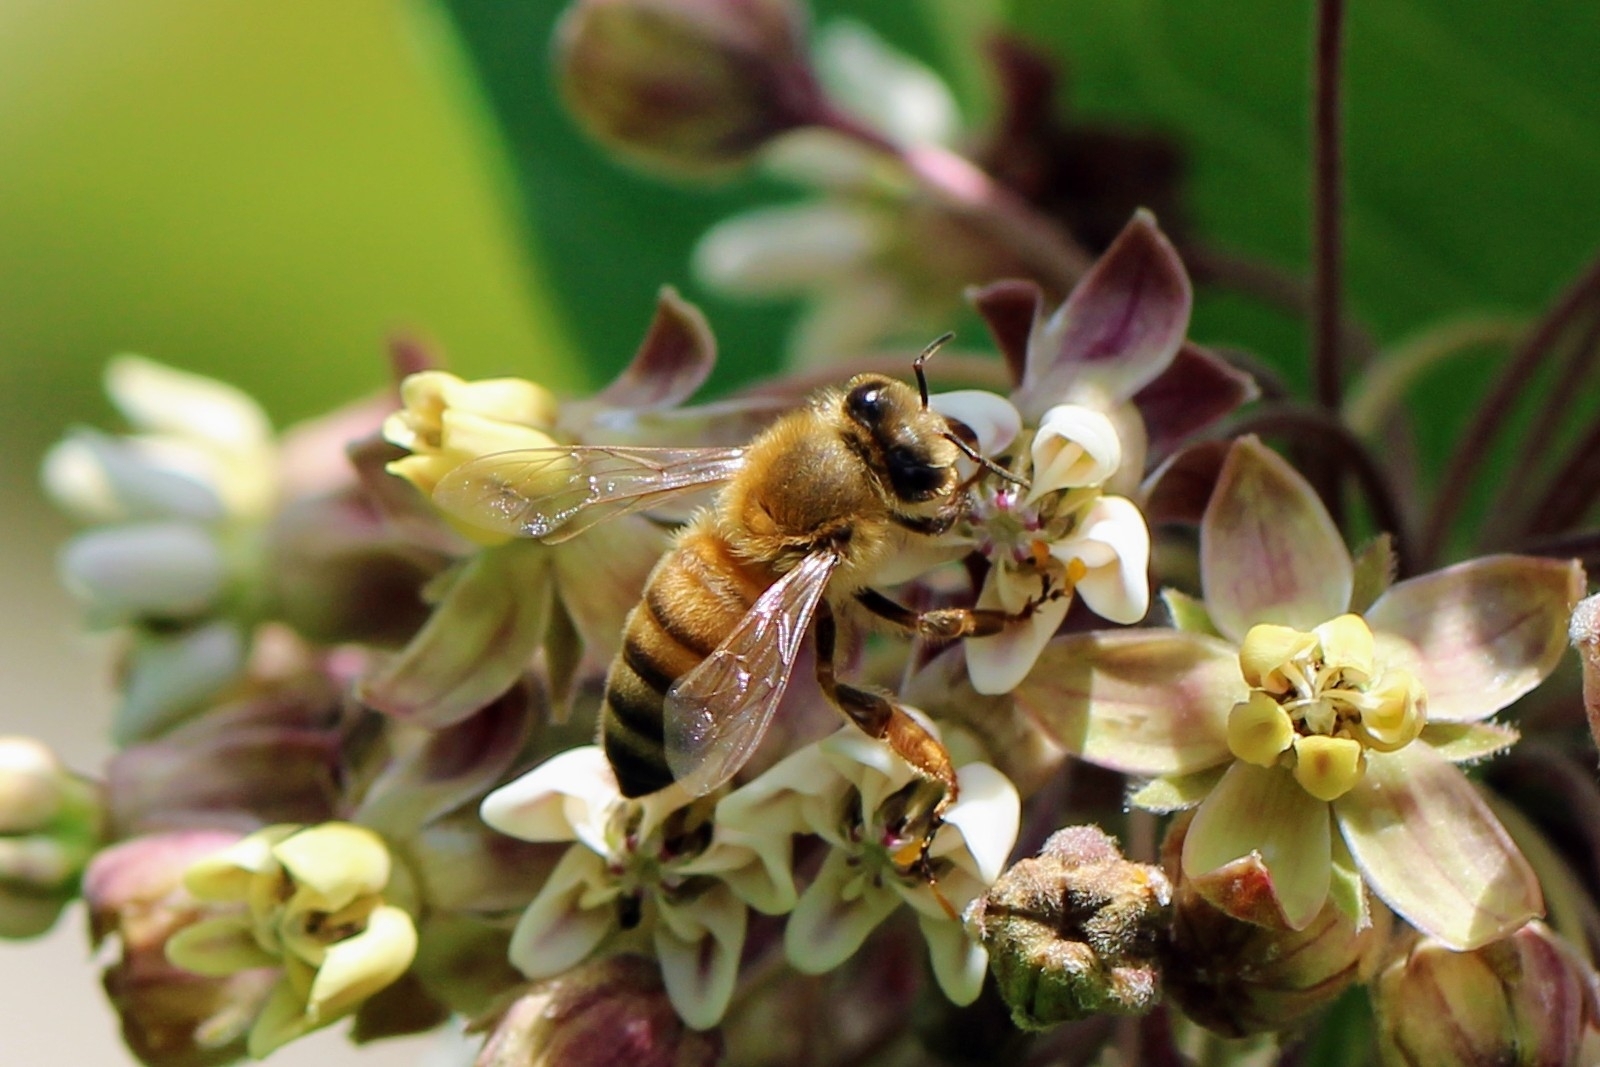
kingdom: Animalia
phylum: Arthropoda
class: Insecta
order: Hymenoptera
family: Apidae
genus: Apis
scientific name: Apis mellifera
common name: Honey bee
